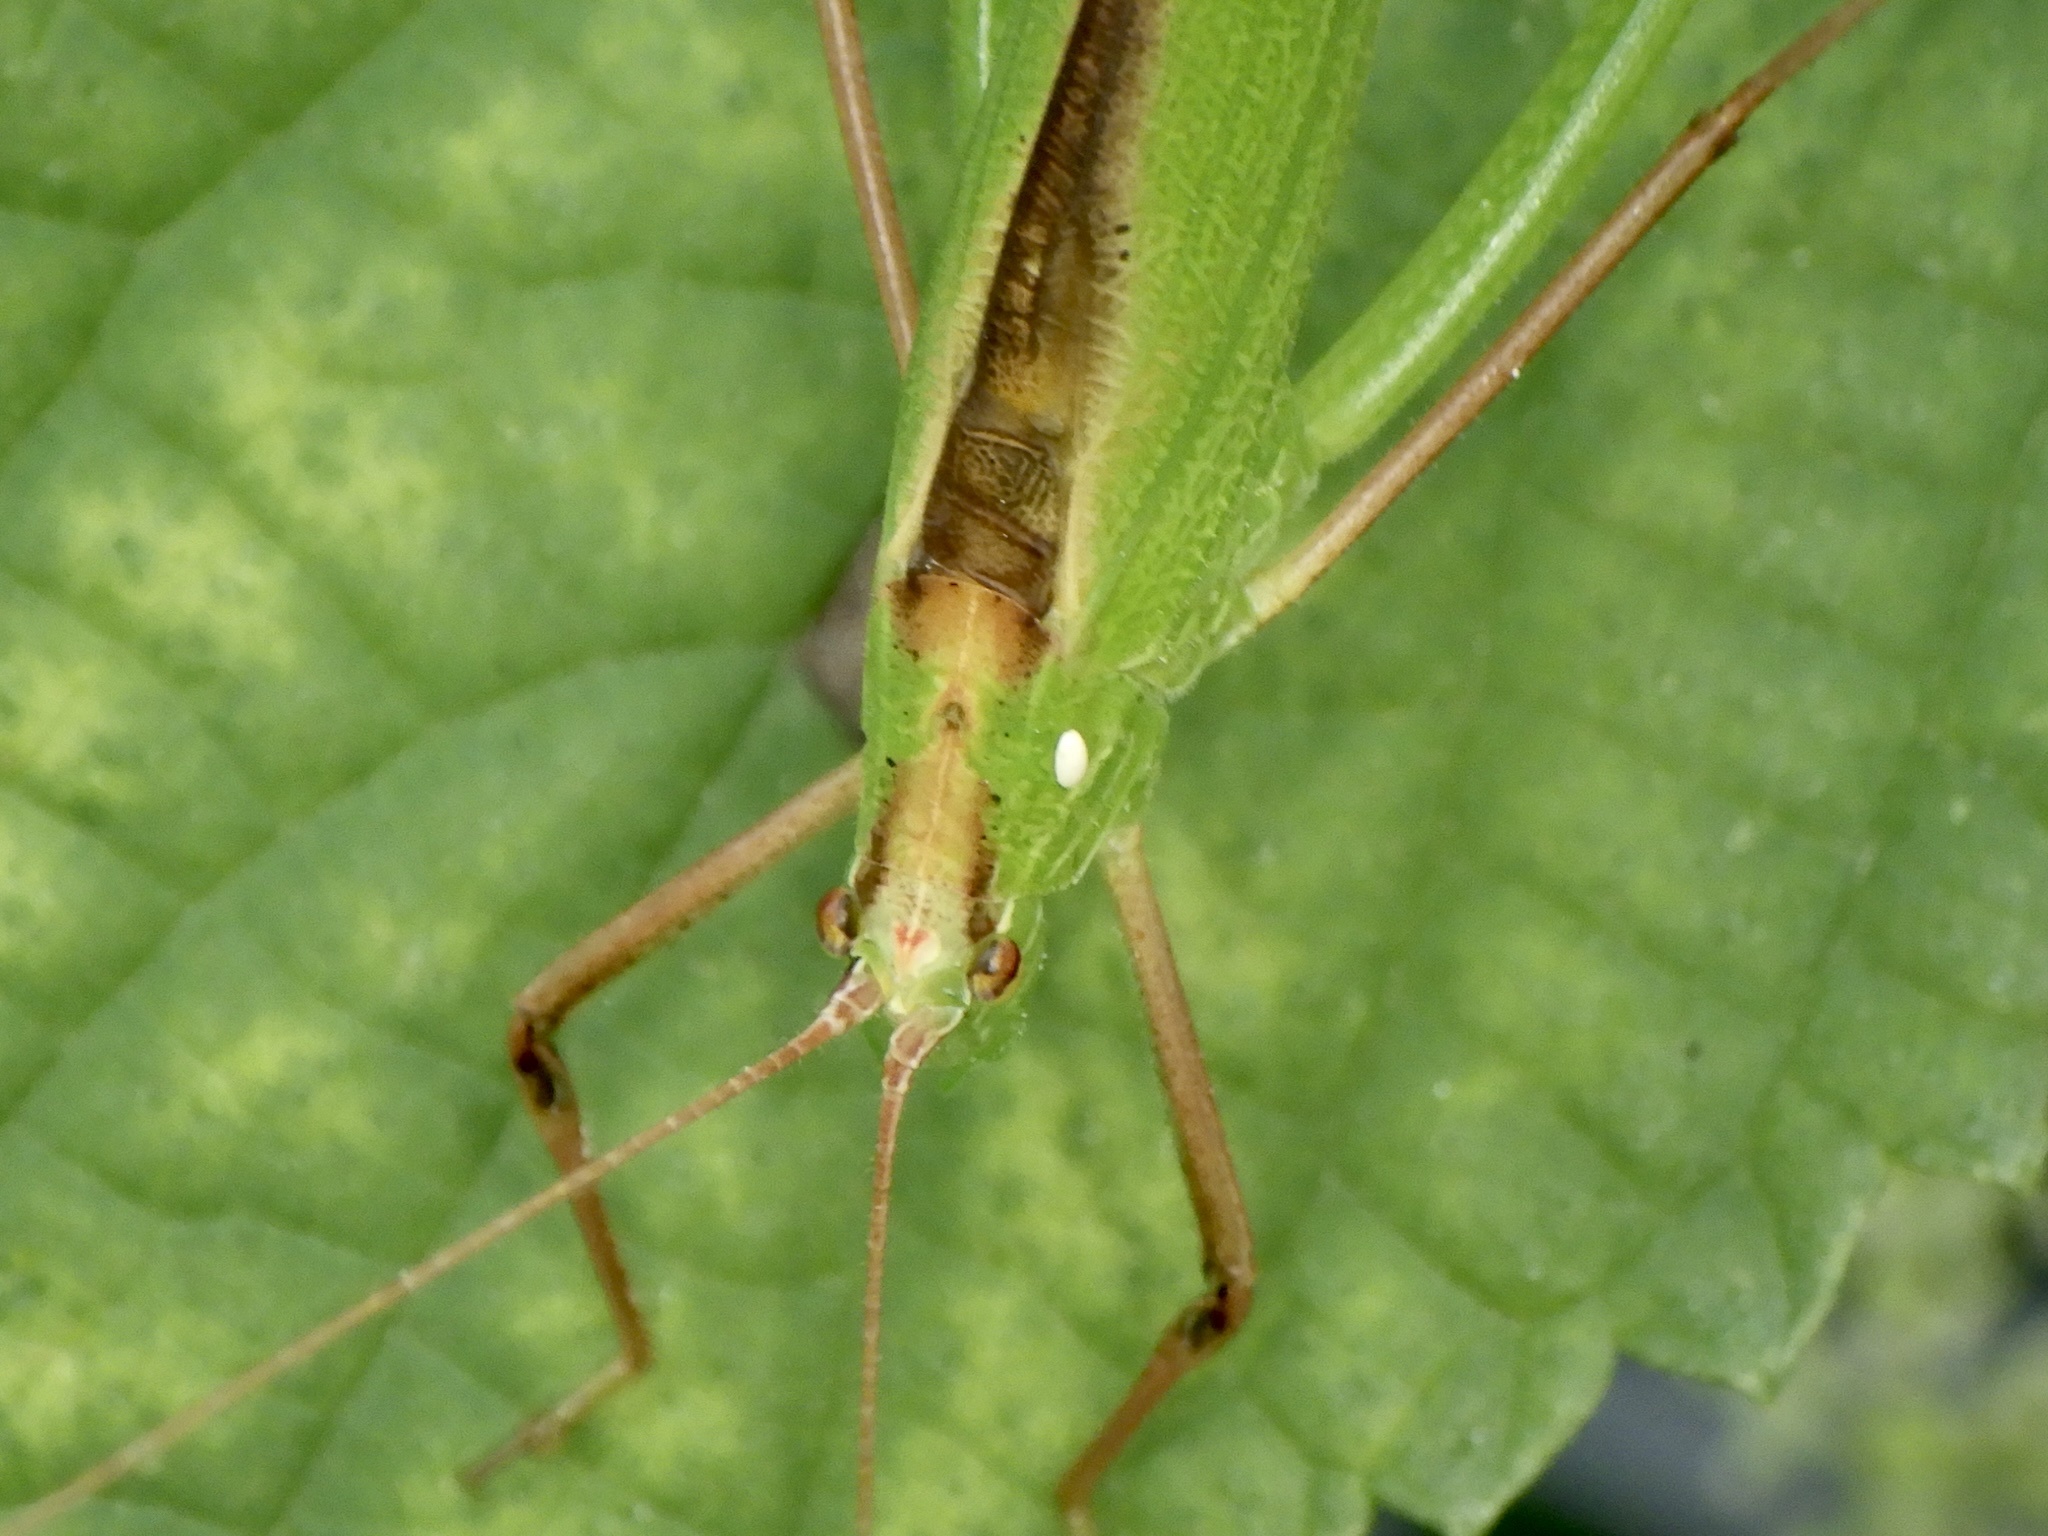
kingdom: Animalia
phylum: Arthropoda
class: Insecta
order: Orthoptera
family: Tettigoniidae
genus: Ducetia
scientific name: Ducetia japonica
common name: Pacific ducetia
